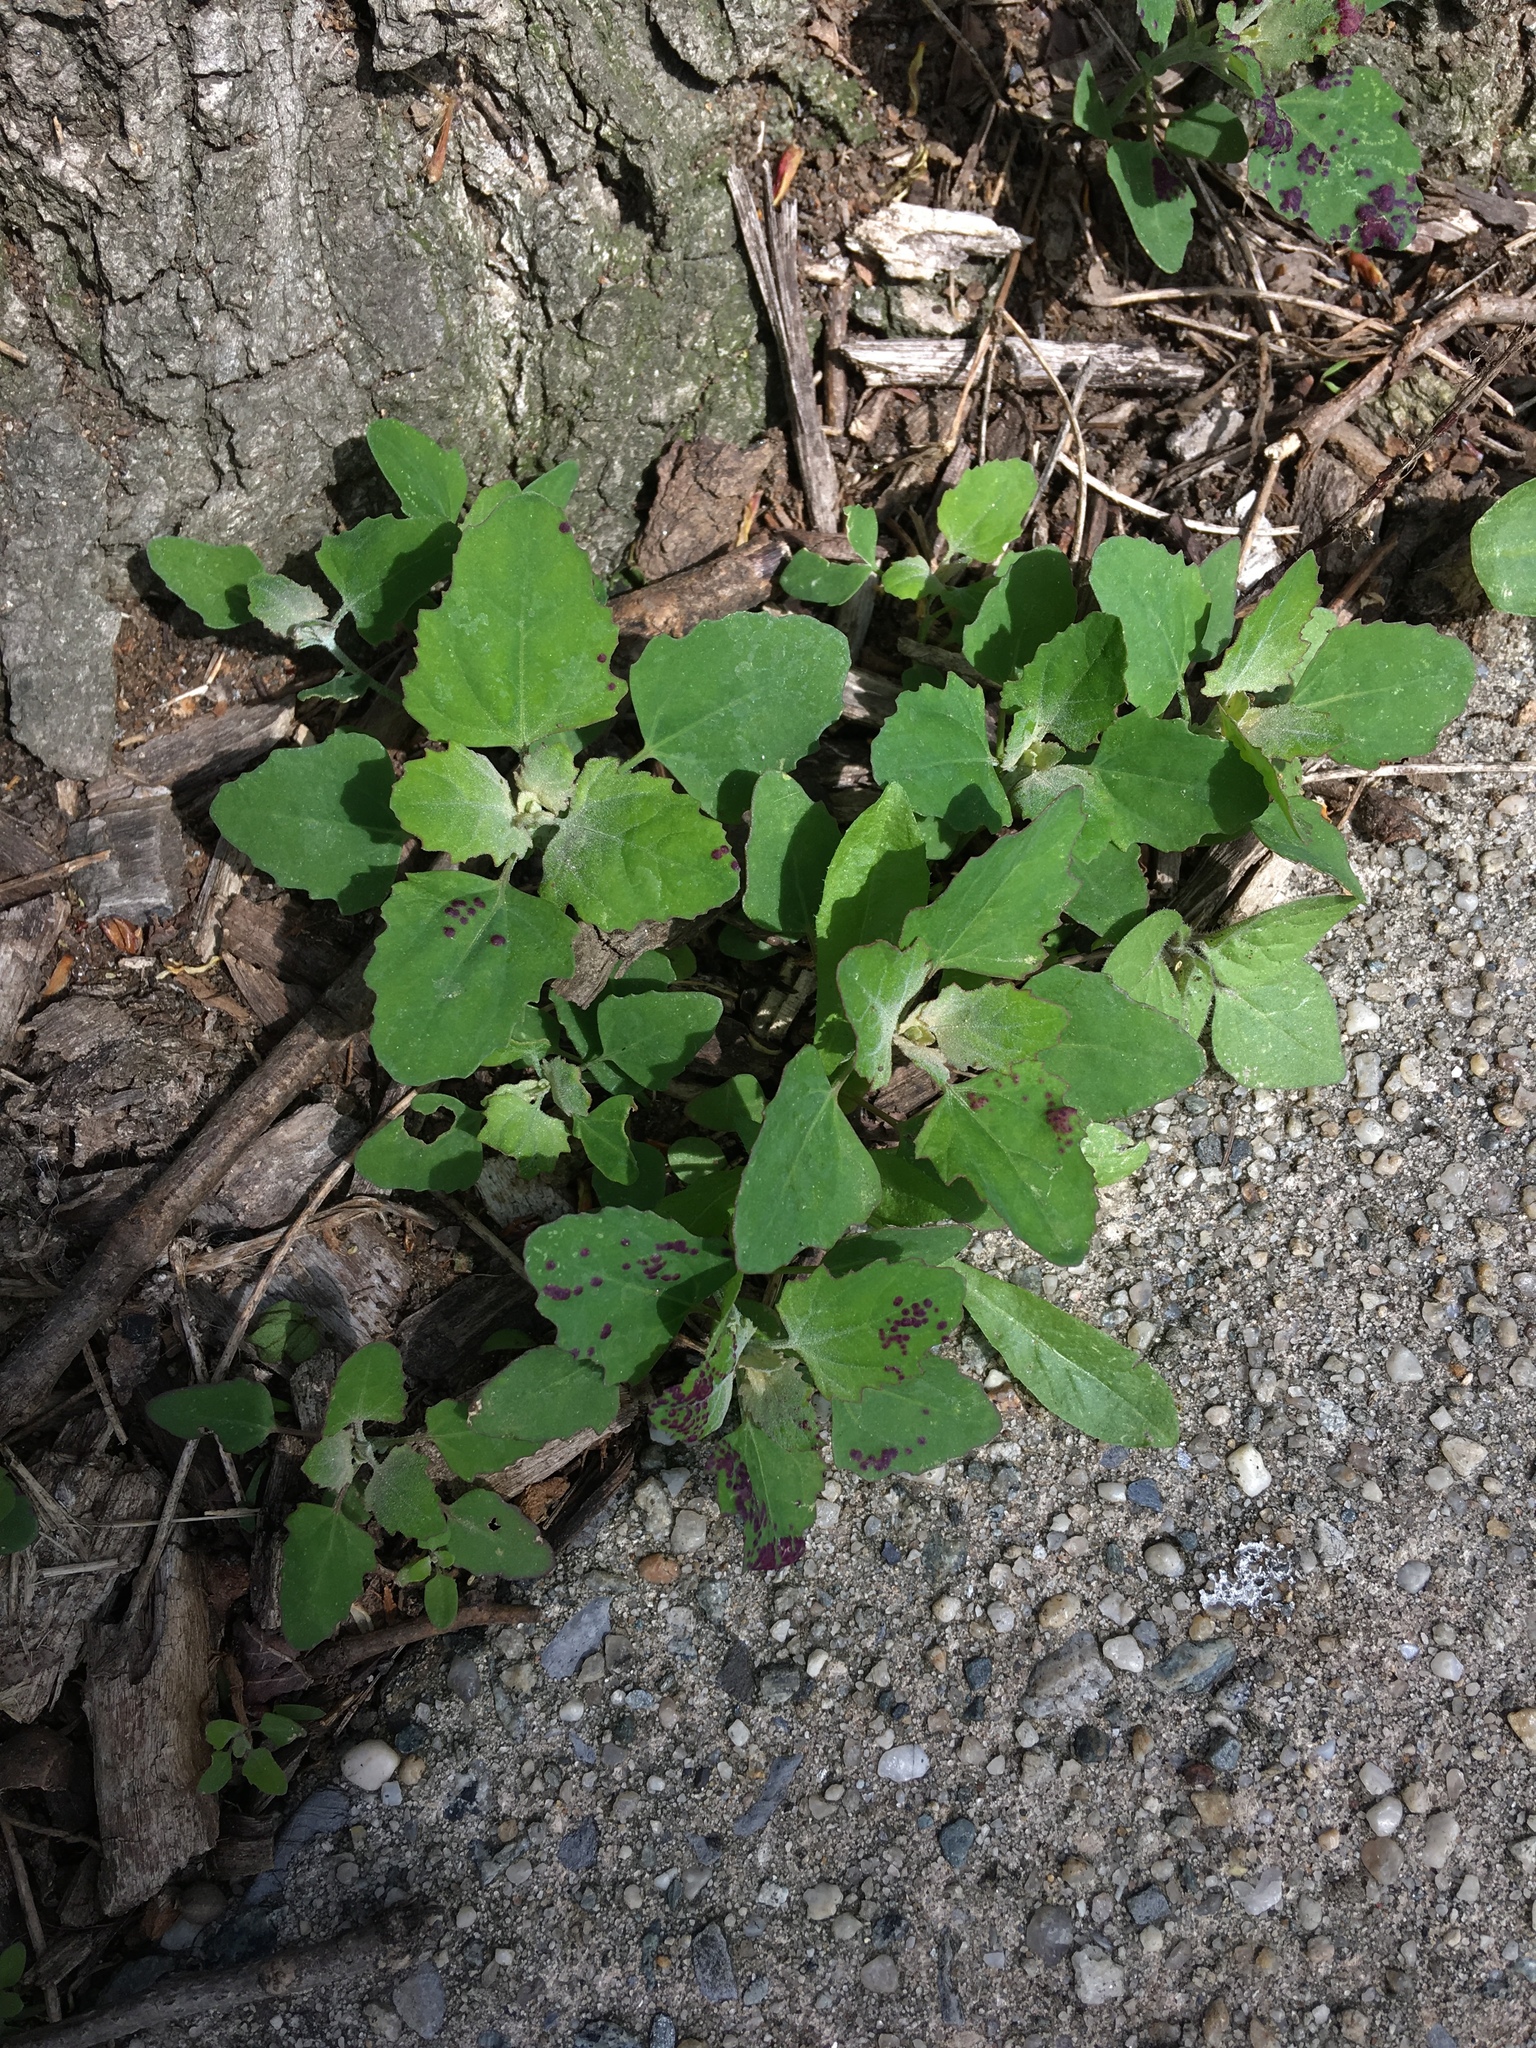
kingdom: Plantae
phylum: Tracheophyta
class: Magnoliopsida
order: Caryophyllales
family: Amaranthaceae
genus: Chenopodium
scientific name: Chenopodium album
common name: Fat-hen
